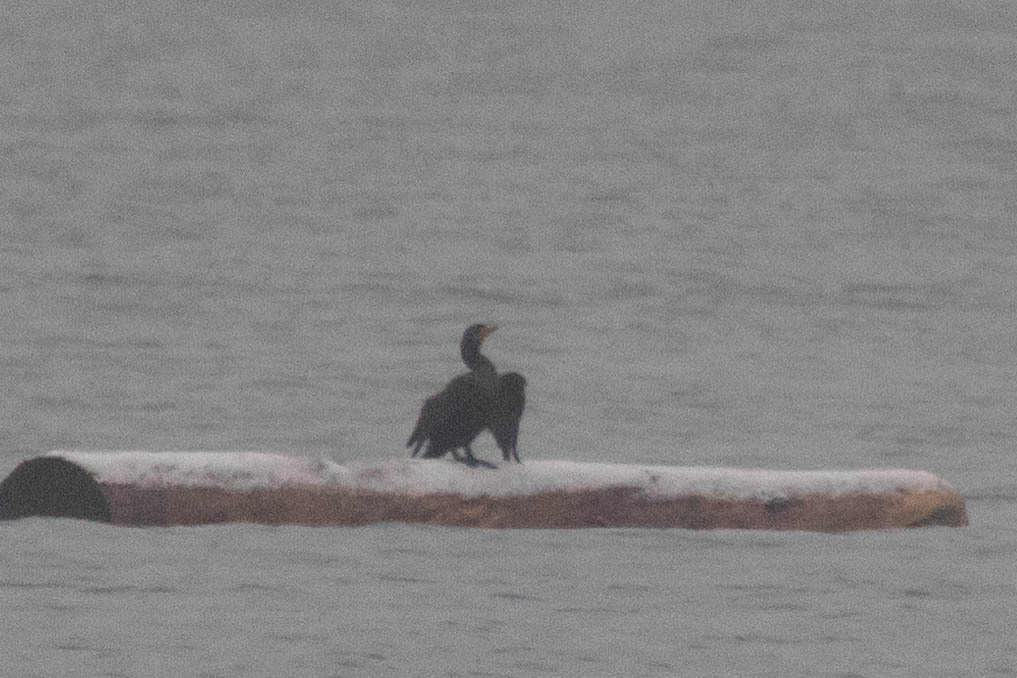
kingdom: Animalia
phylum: Chordata
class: Aves
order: Suliformes
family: Phalacrocoracidae
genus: Phalacrocorax
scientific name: Phalacrocorax auritus
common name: Double-crested cormorant
